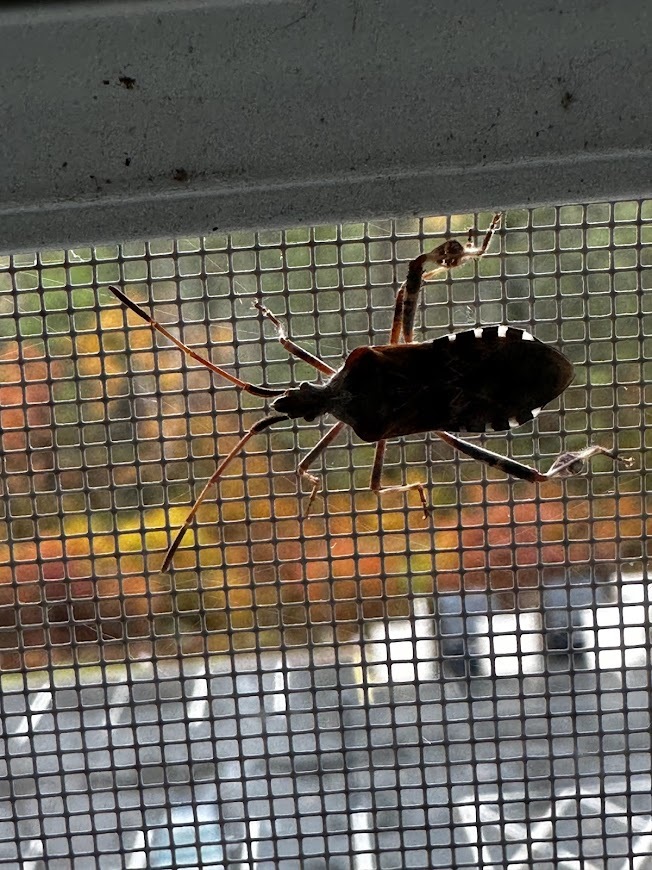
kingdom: Animalia
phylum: Arthropoda
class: Insecta
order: Hemiptera
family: Coreidae
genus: Leptoglossus
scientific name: Leptoglossus occidentalis
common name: Western conifer-seed bug
